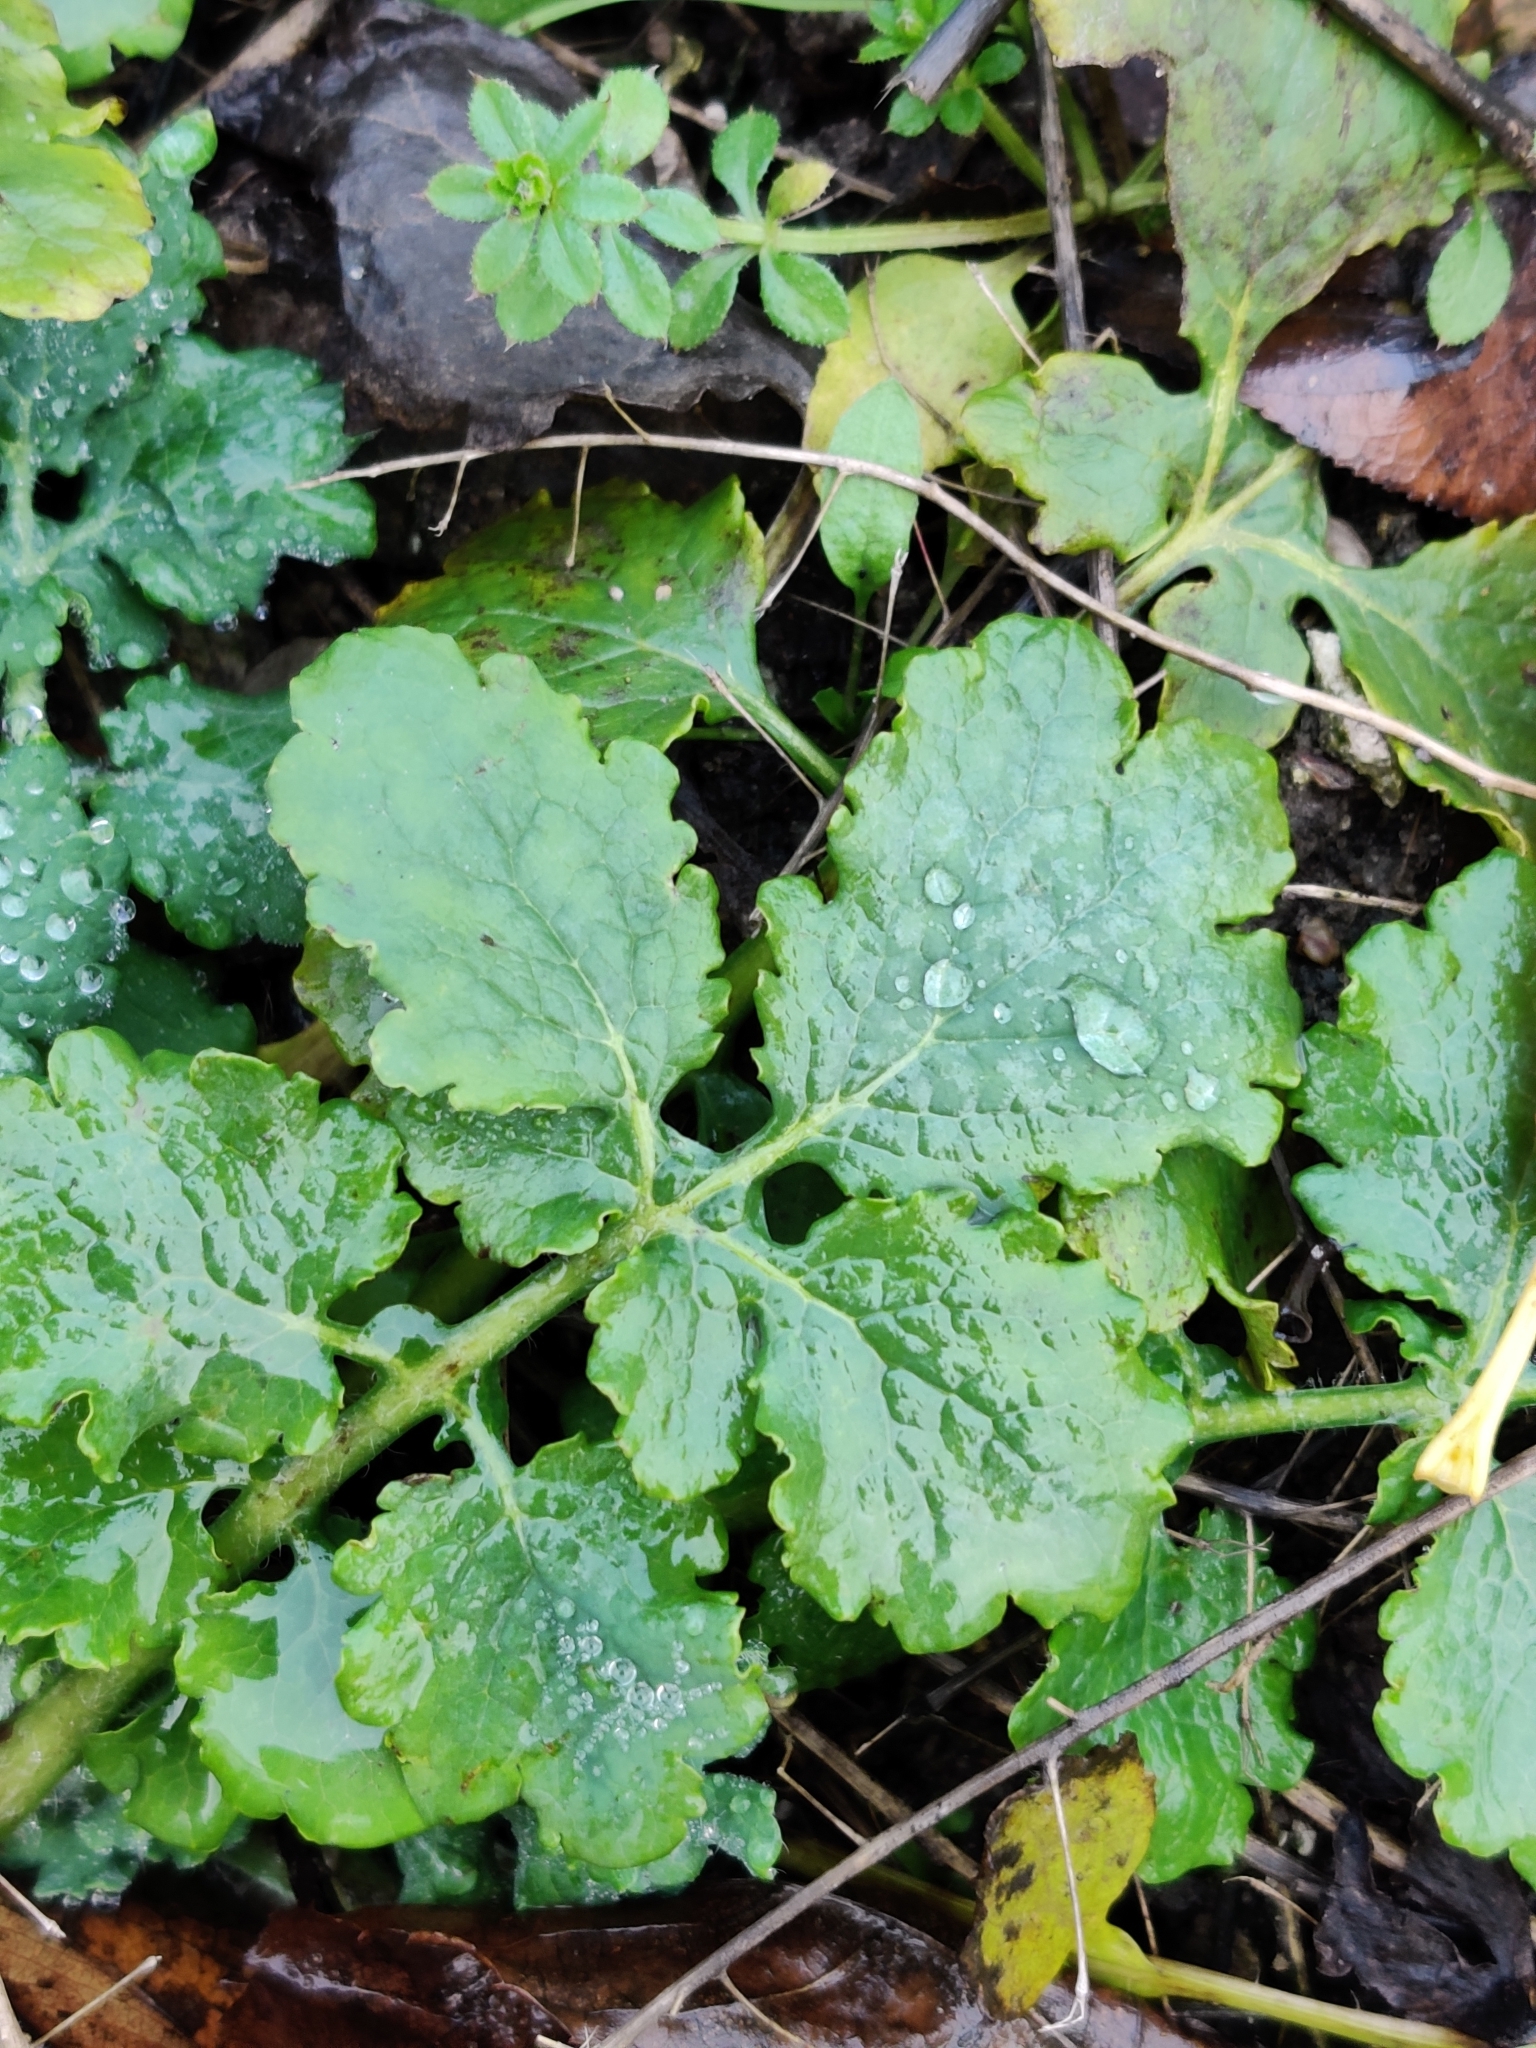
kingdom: Plantae
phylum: Tracheophyta
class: Magnoliopsida
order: Ranunculales
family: Papaveraceae
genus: Chelidonium
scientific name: Chelidonium majus
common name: Greater celandine
